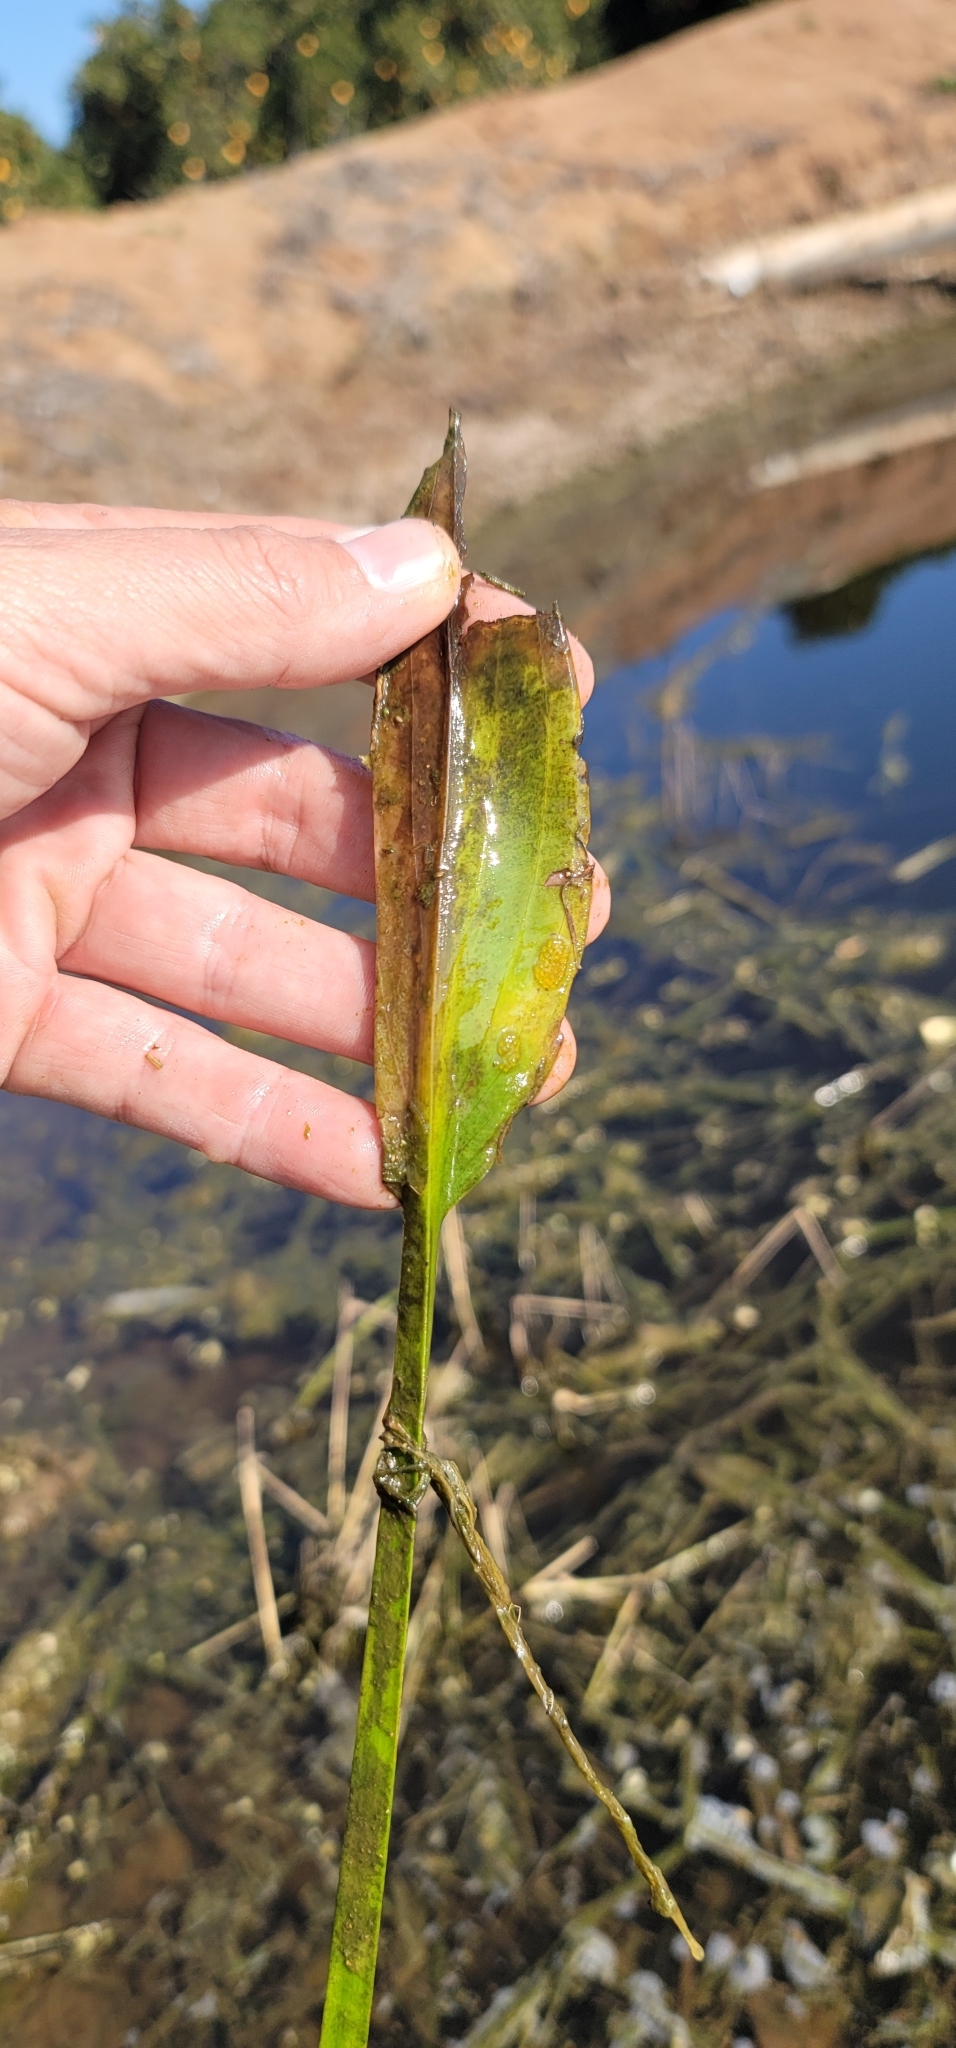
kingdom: Plantae
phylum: Tracheophyta
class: Liliopsida
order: Alismatales
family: Alismataceae
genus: Sagittaria
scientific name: Sagittaria sanfordii
